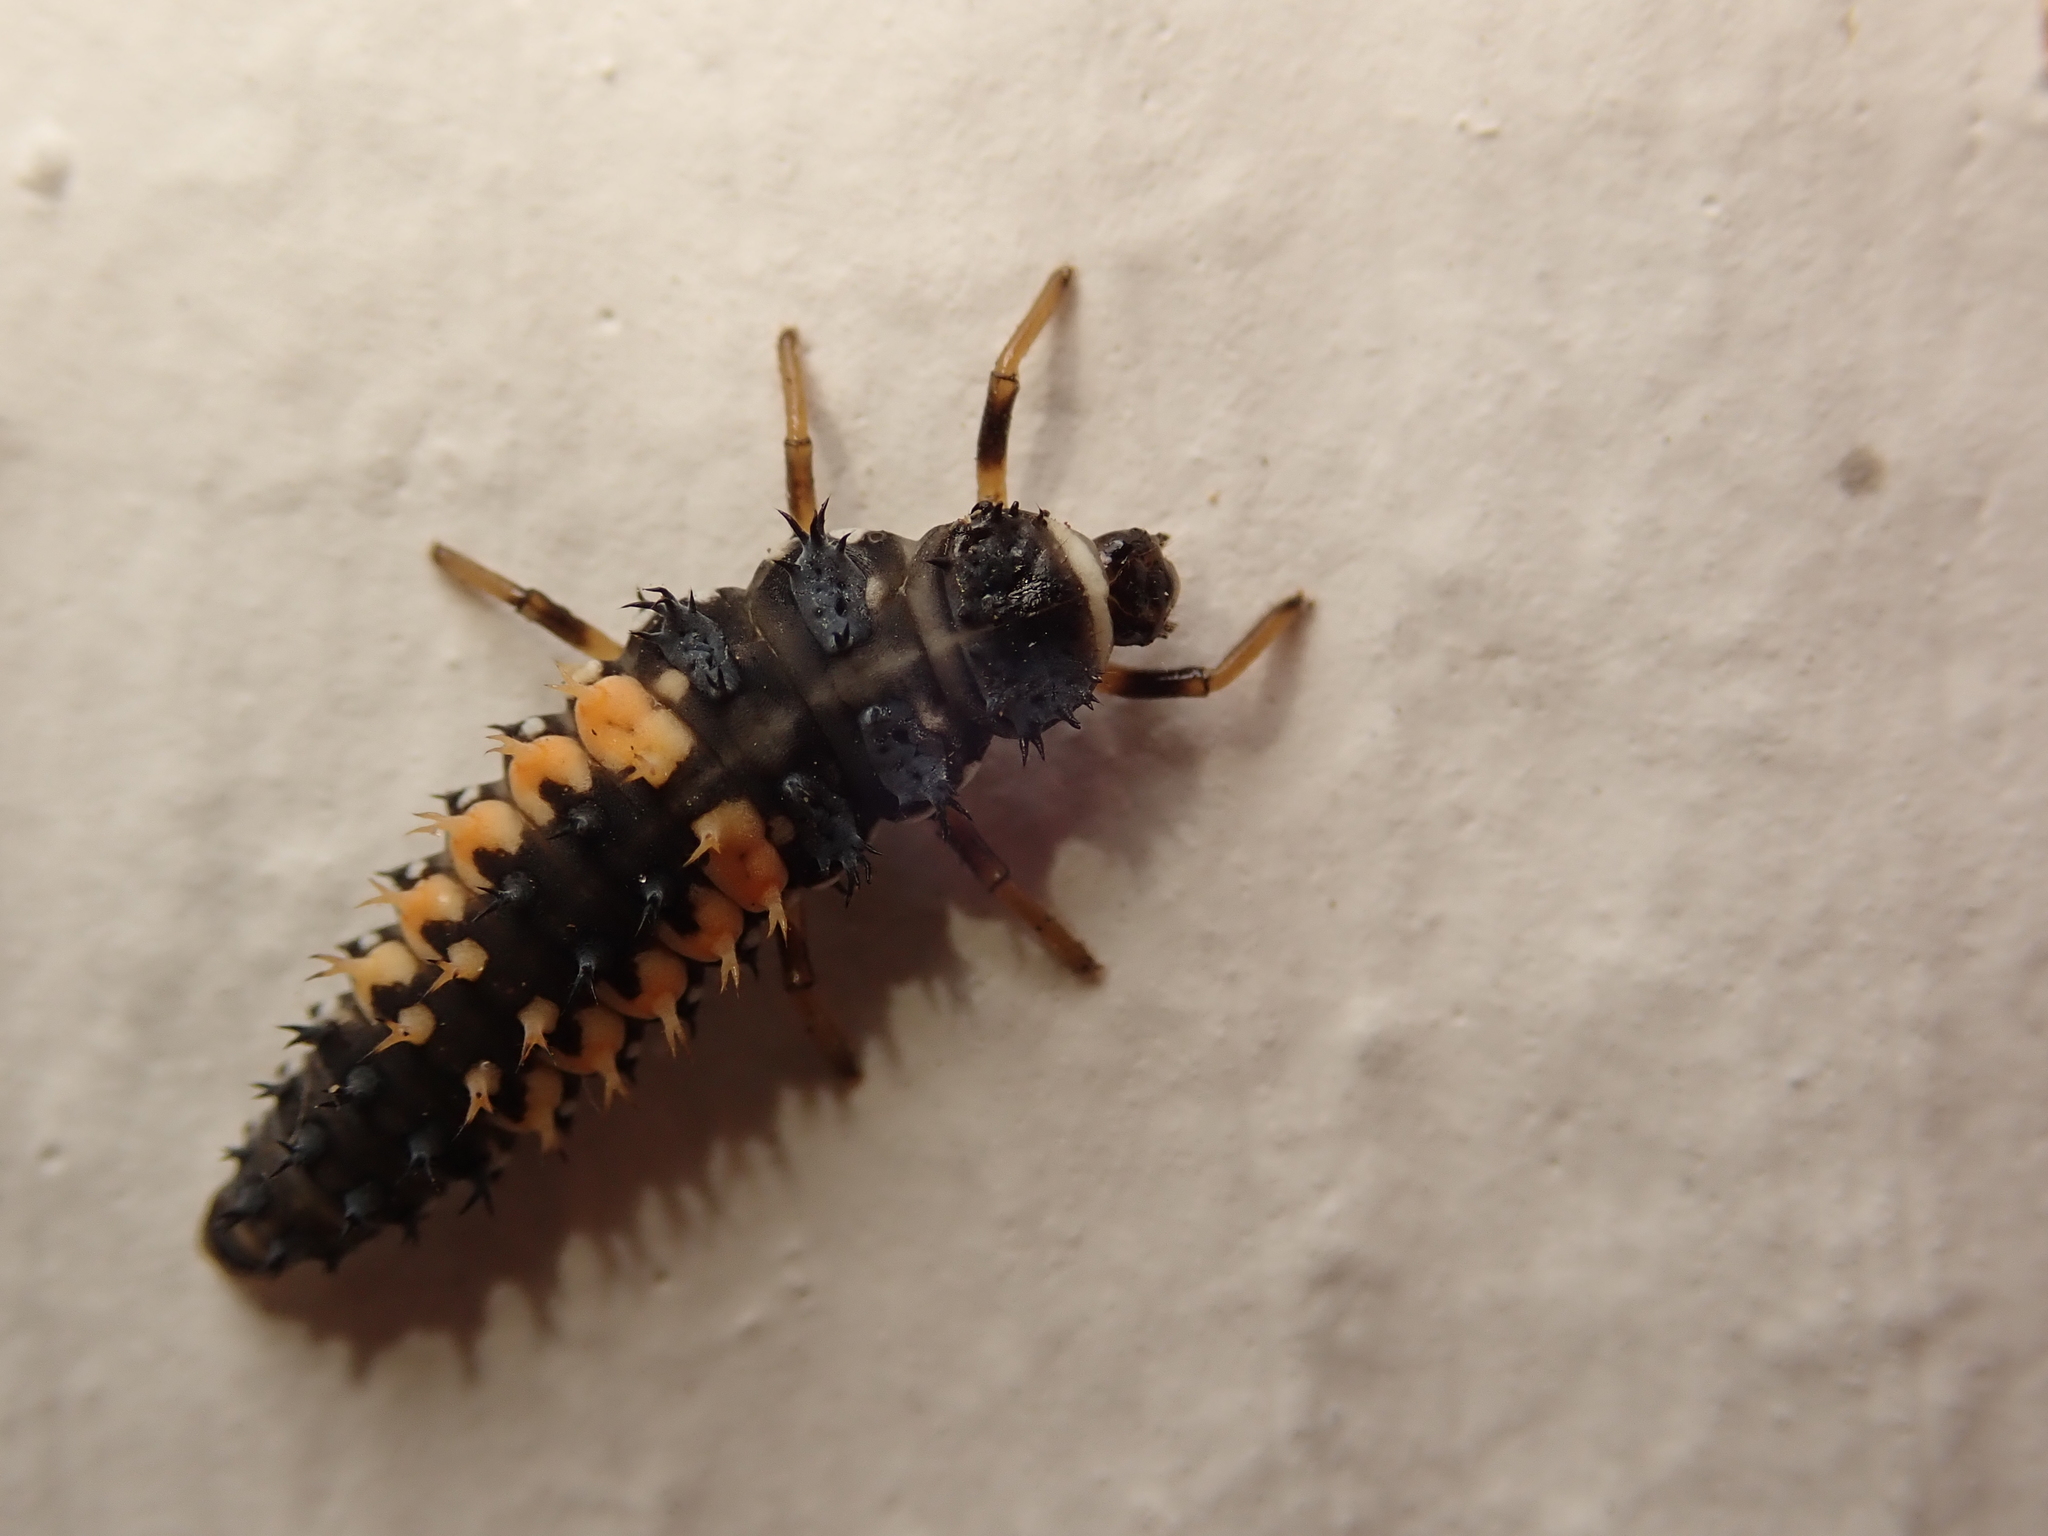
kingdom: Animalia
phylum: Arthropoda
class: Insecta
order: Coleoptera
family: Coccinellidae
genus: Harmonia
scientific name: Harmonia axyridis
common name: Harlequin ladybird
